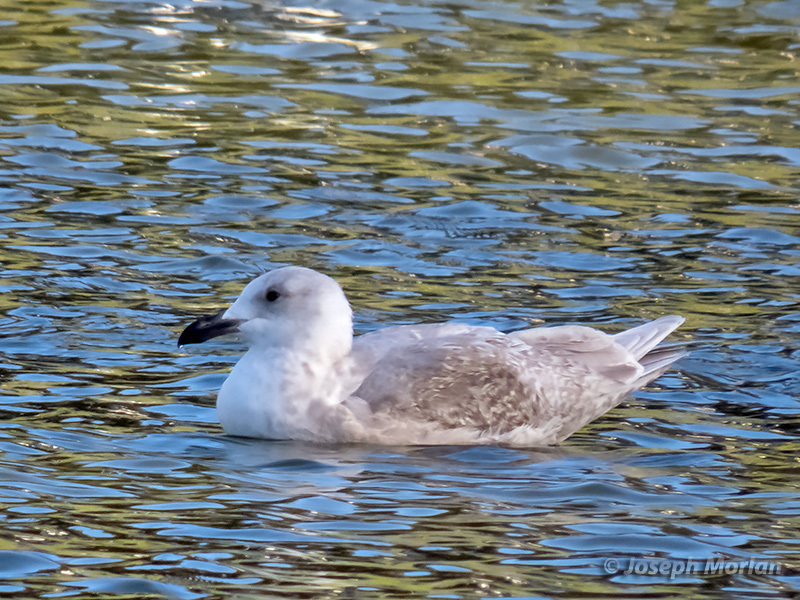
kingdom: Animalia
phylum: Chordata
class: Aves
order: Charadriiformes
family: Laridae
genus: Larus
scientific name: Larus glaucescens
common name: Glaucous-winged gull
